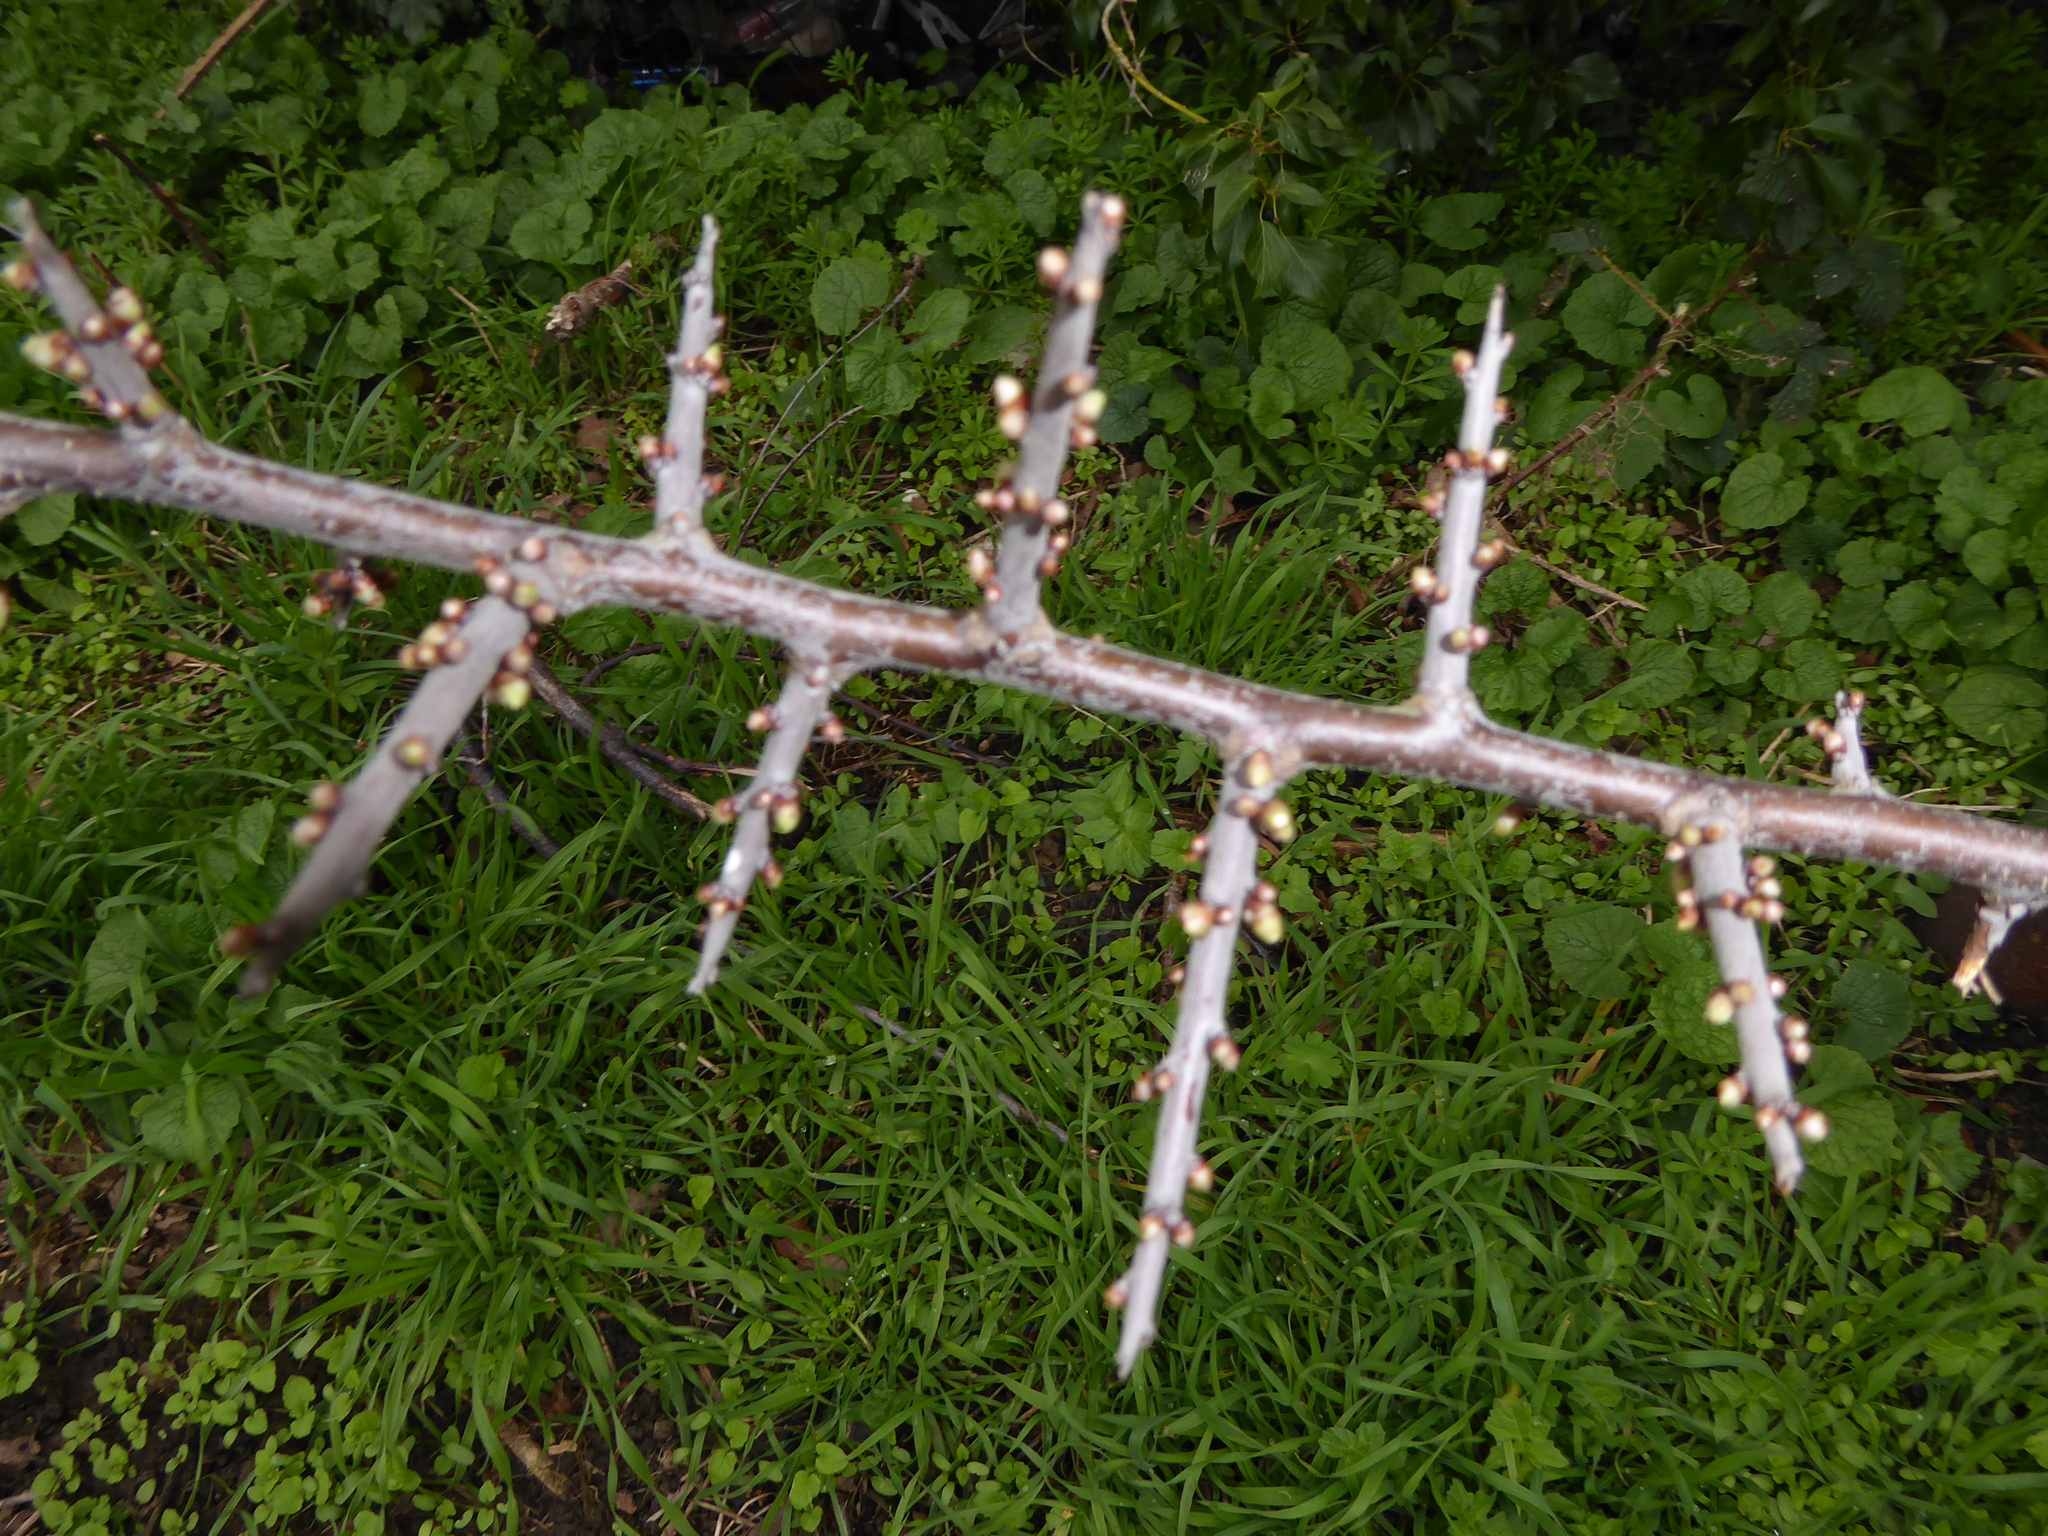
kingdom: Plantae
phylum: Tracheophyta
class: Magnoliopsida
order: Rosales
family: Rosaceae
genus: Prunus
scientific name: Prunus spinosa
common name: Blackthorn
